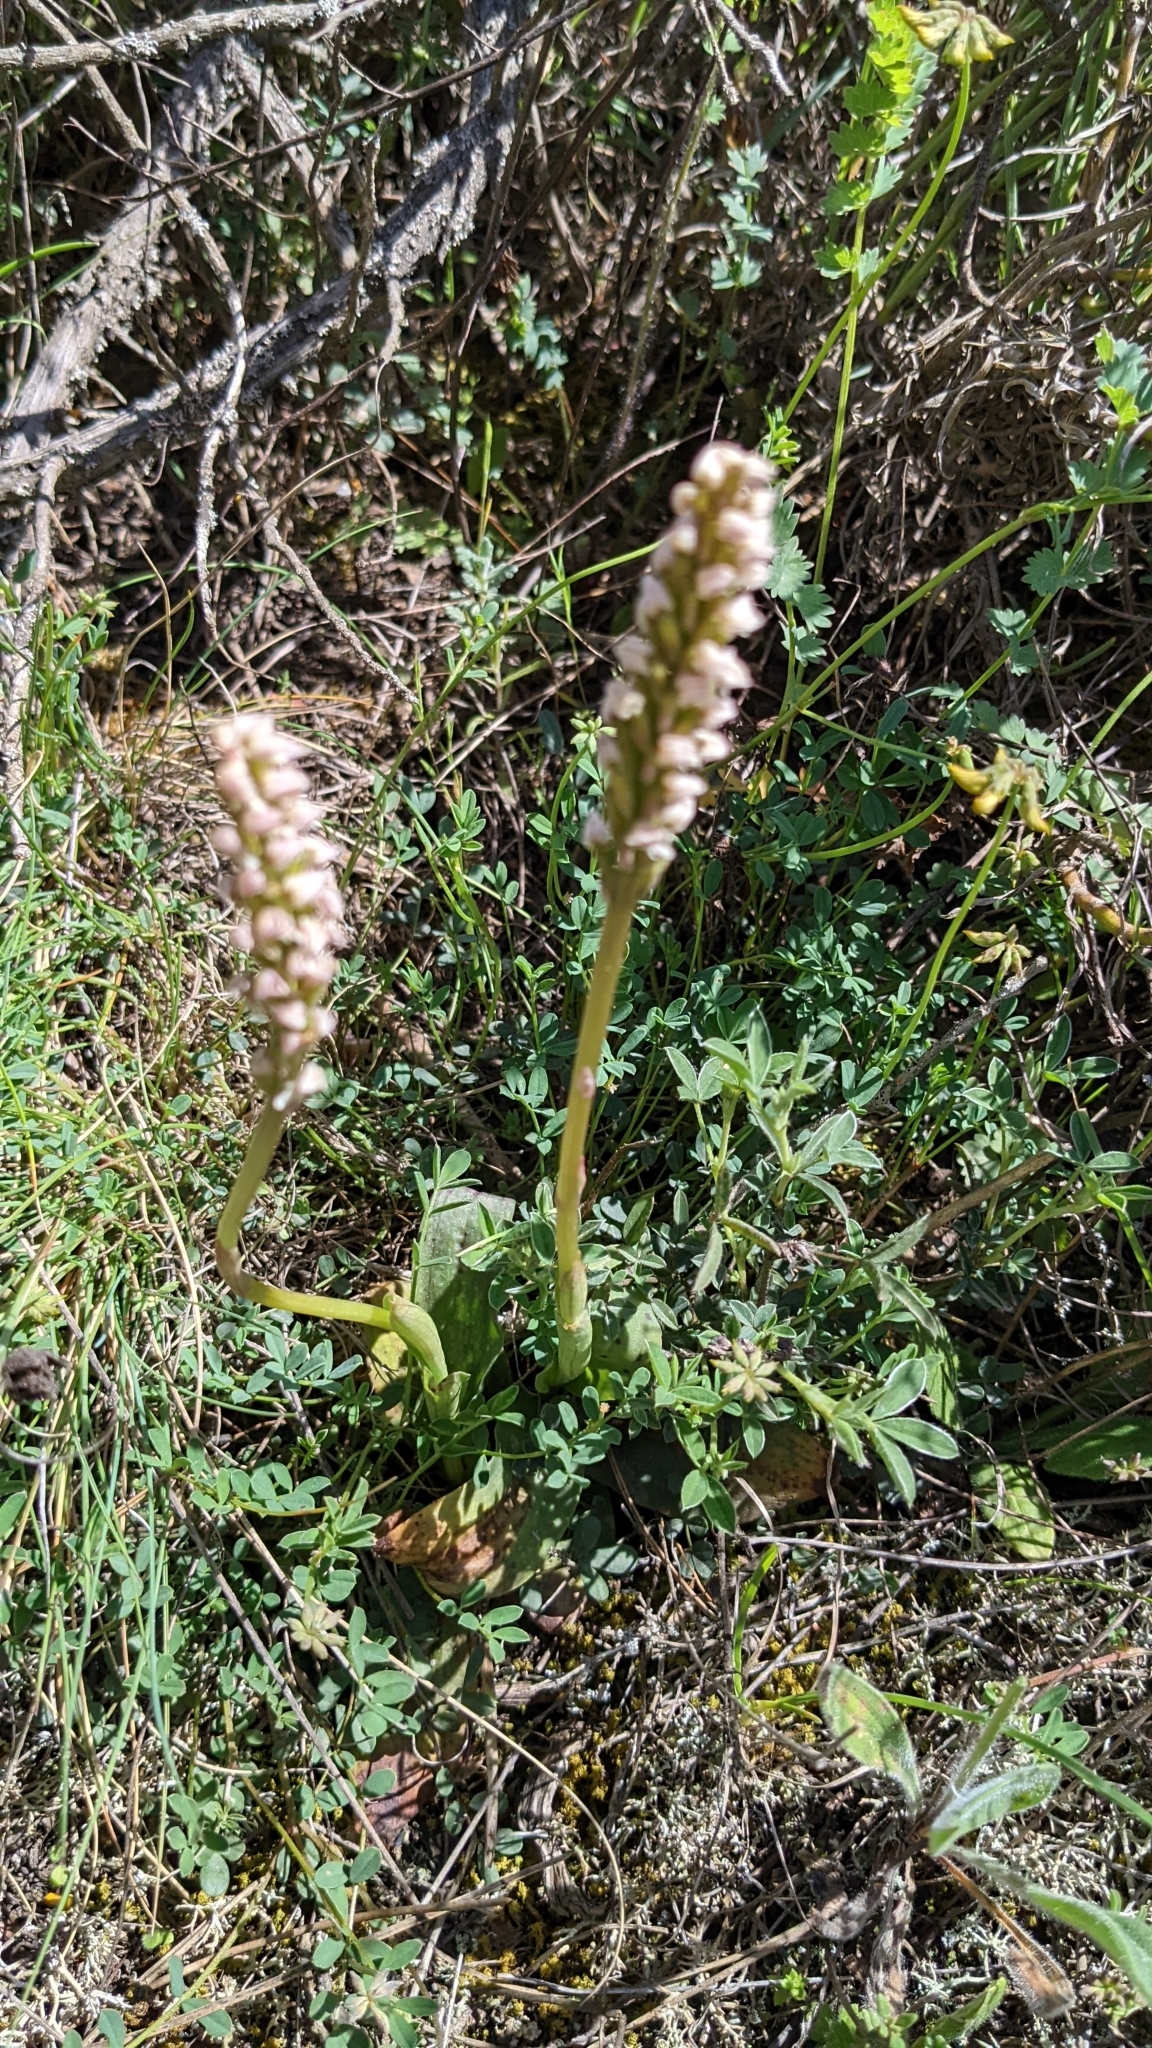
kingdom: Plantae
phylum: Tracheophyta
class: Liliopsida
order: Asparagales
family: Orchidaceae
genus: Neotinea
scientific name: Neotinea maculata
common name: Dense-flowered orchid
